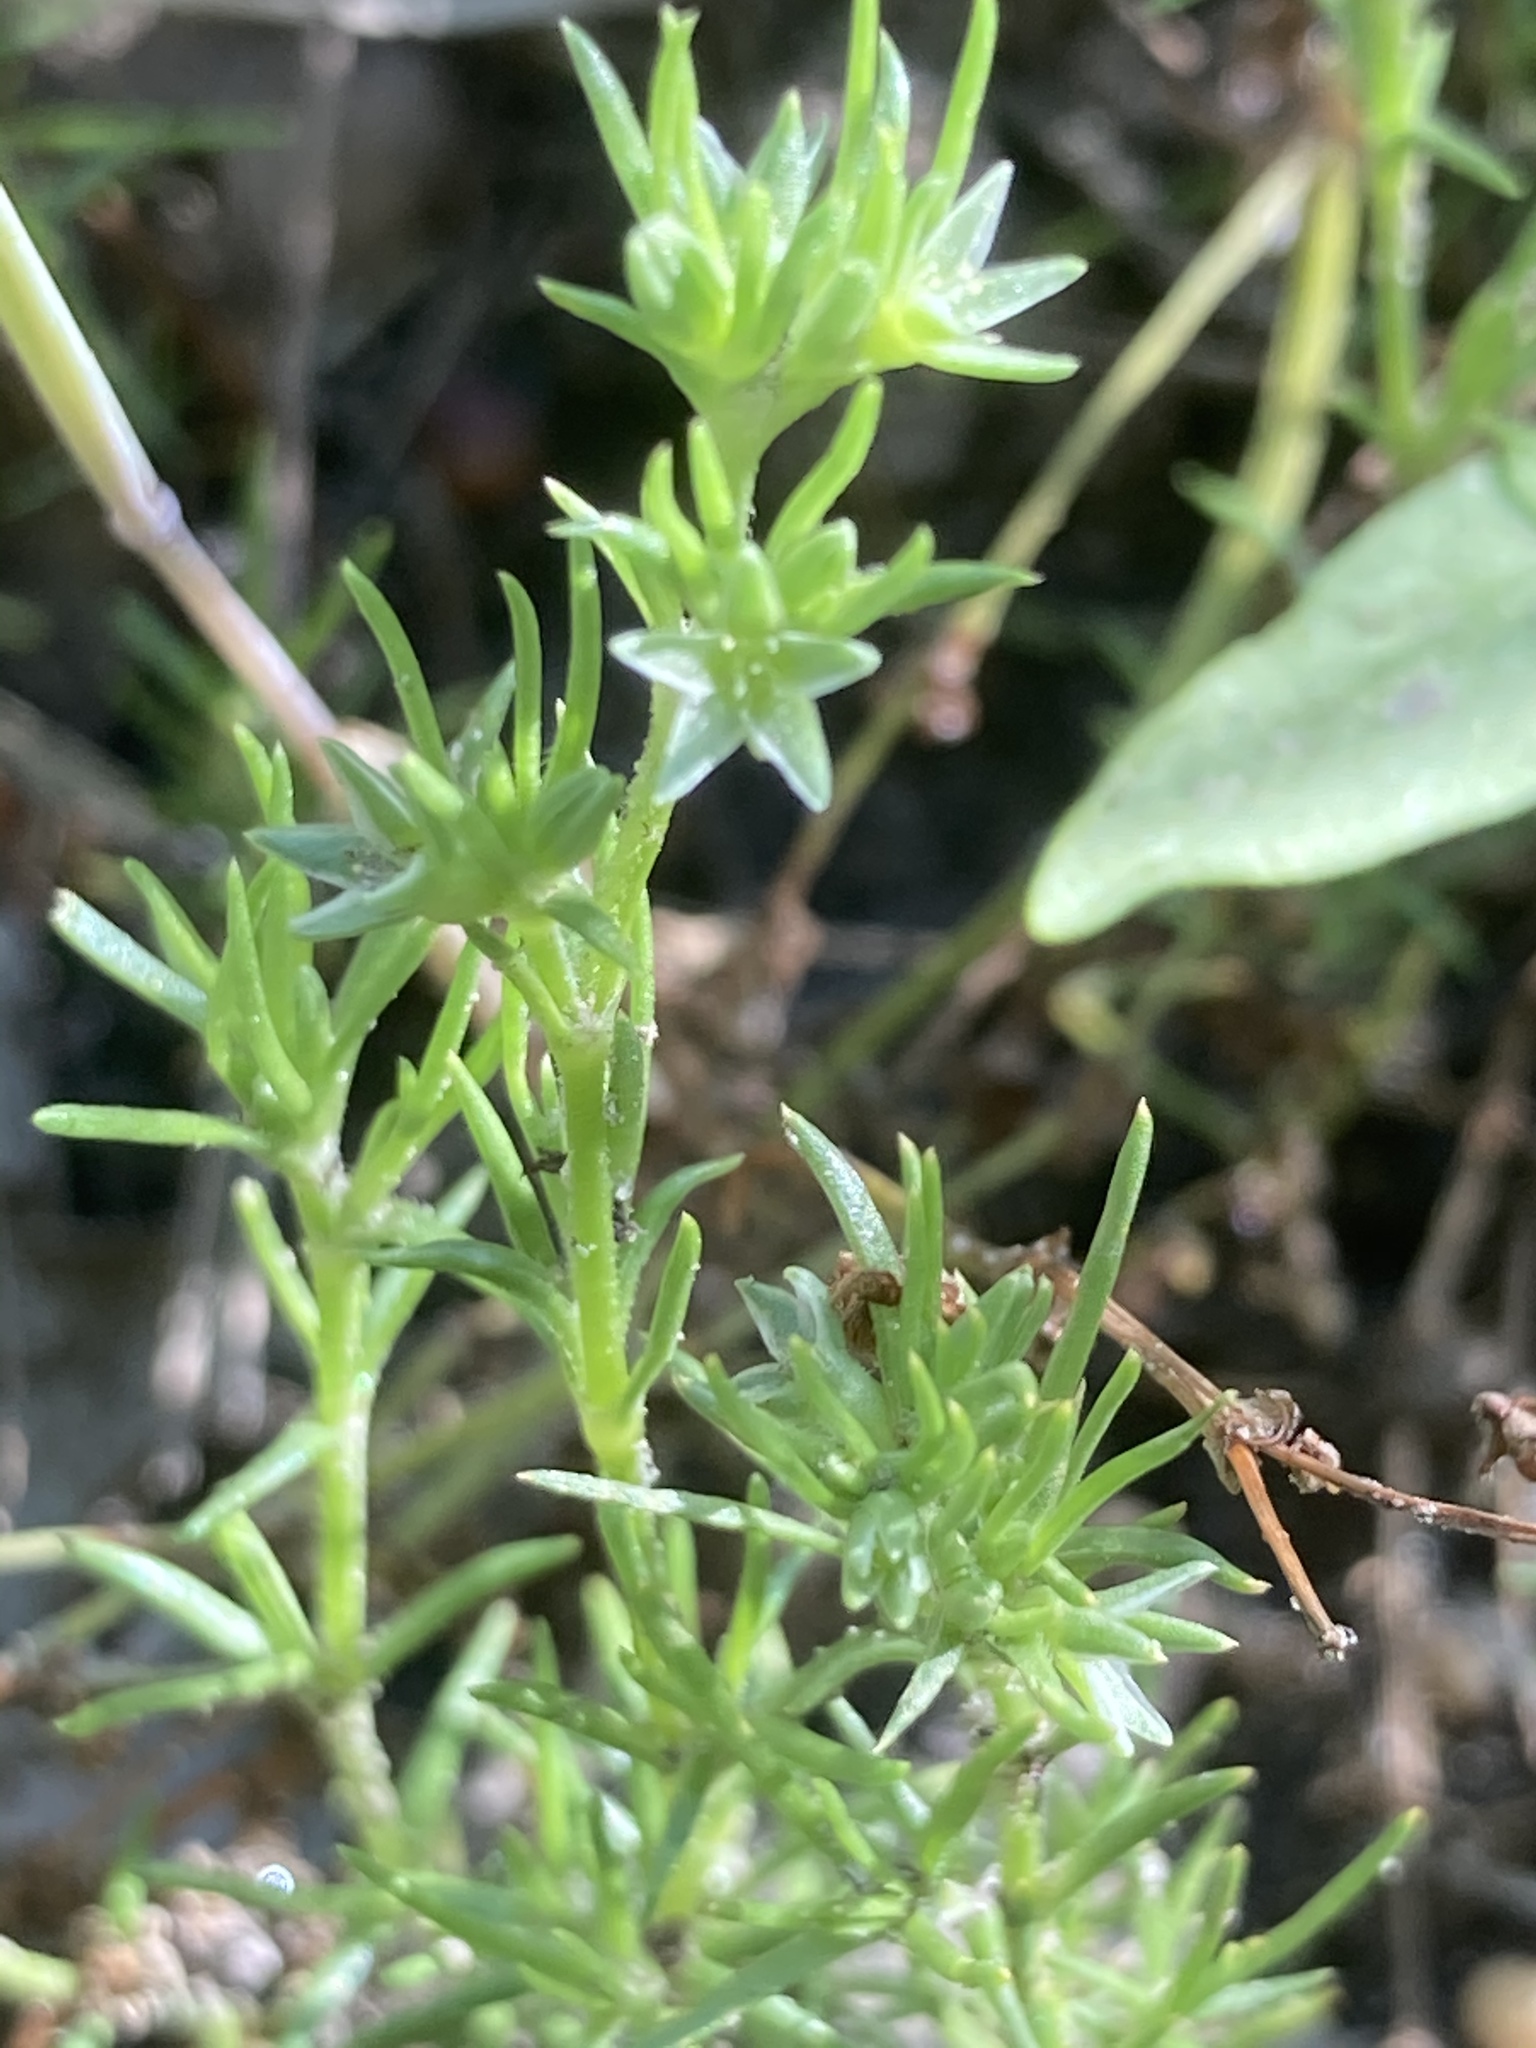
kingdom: Plantae
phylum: Tracheophyta
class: Magnoliopsida
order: Caryophyllales
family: Caryophyllaceae
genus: Scleranthus
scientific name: Scleranthus annuus
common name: Annual knawel
